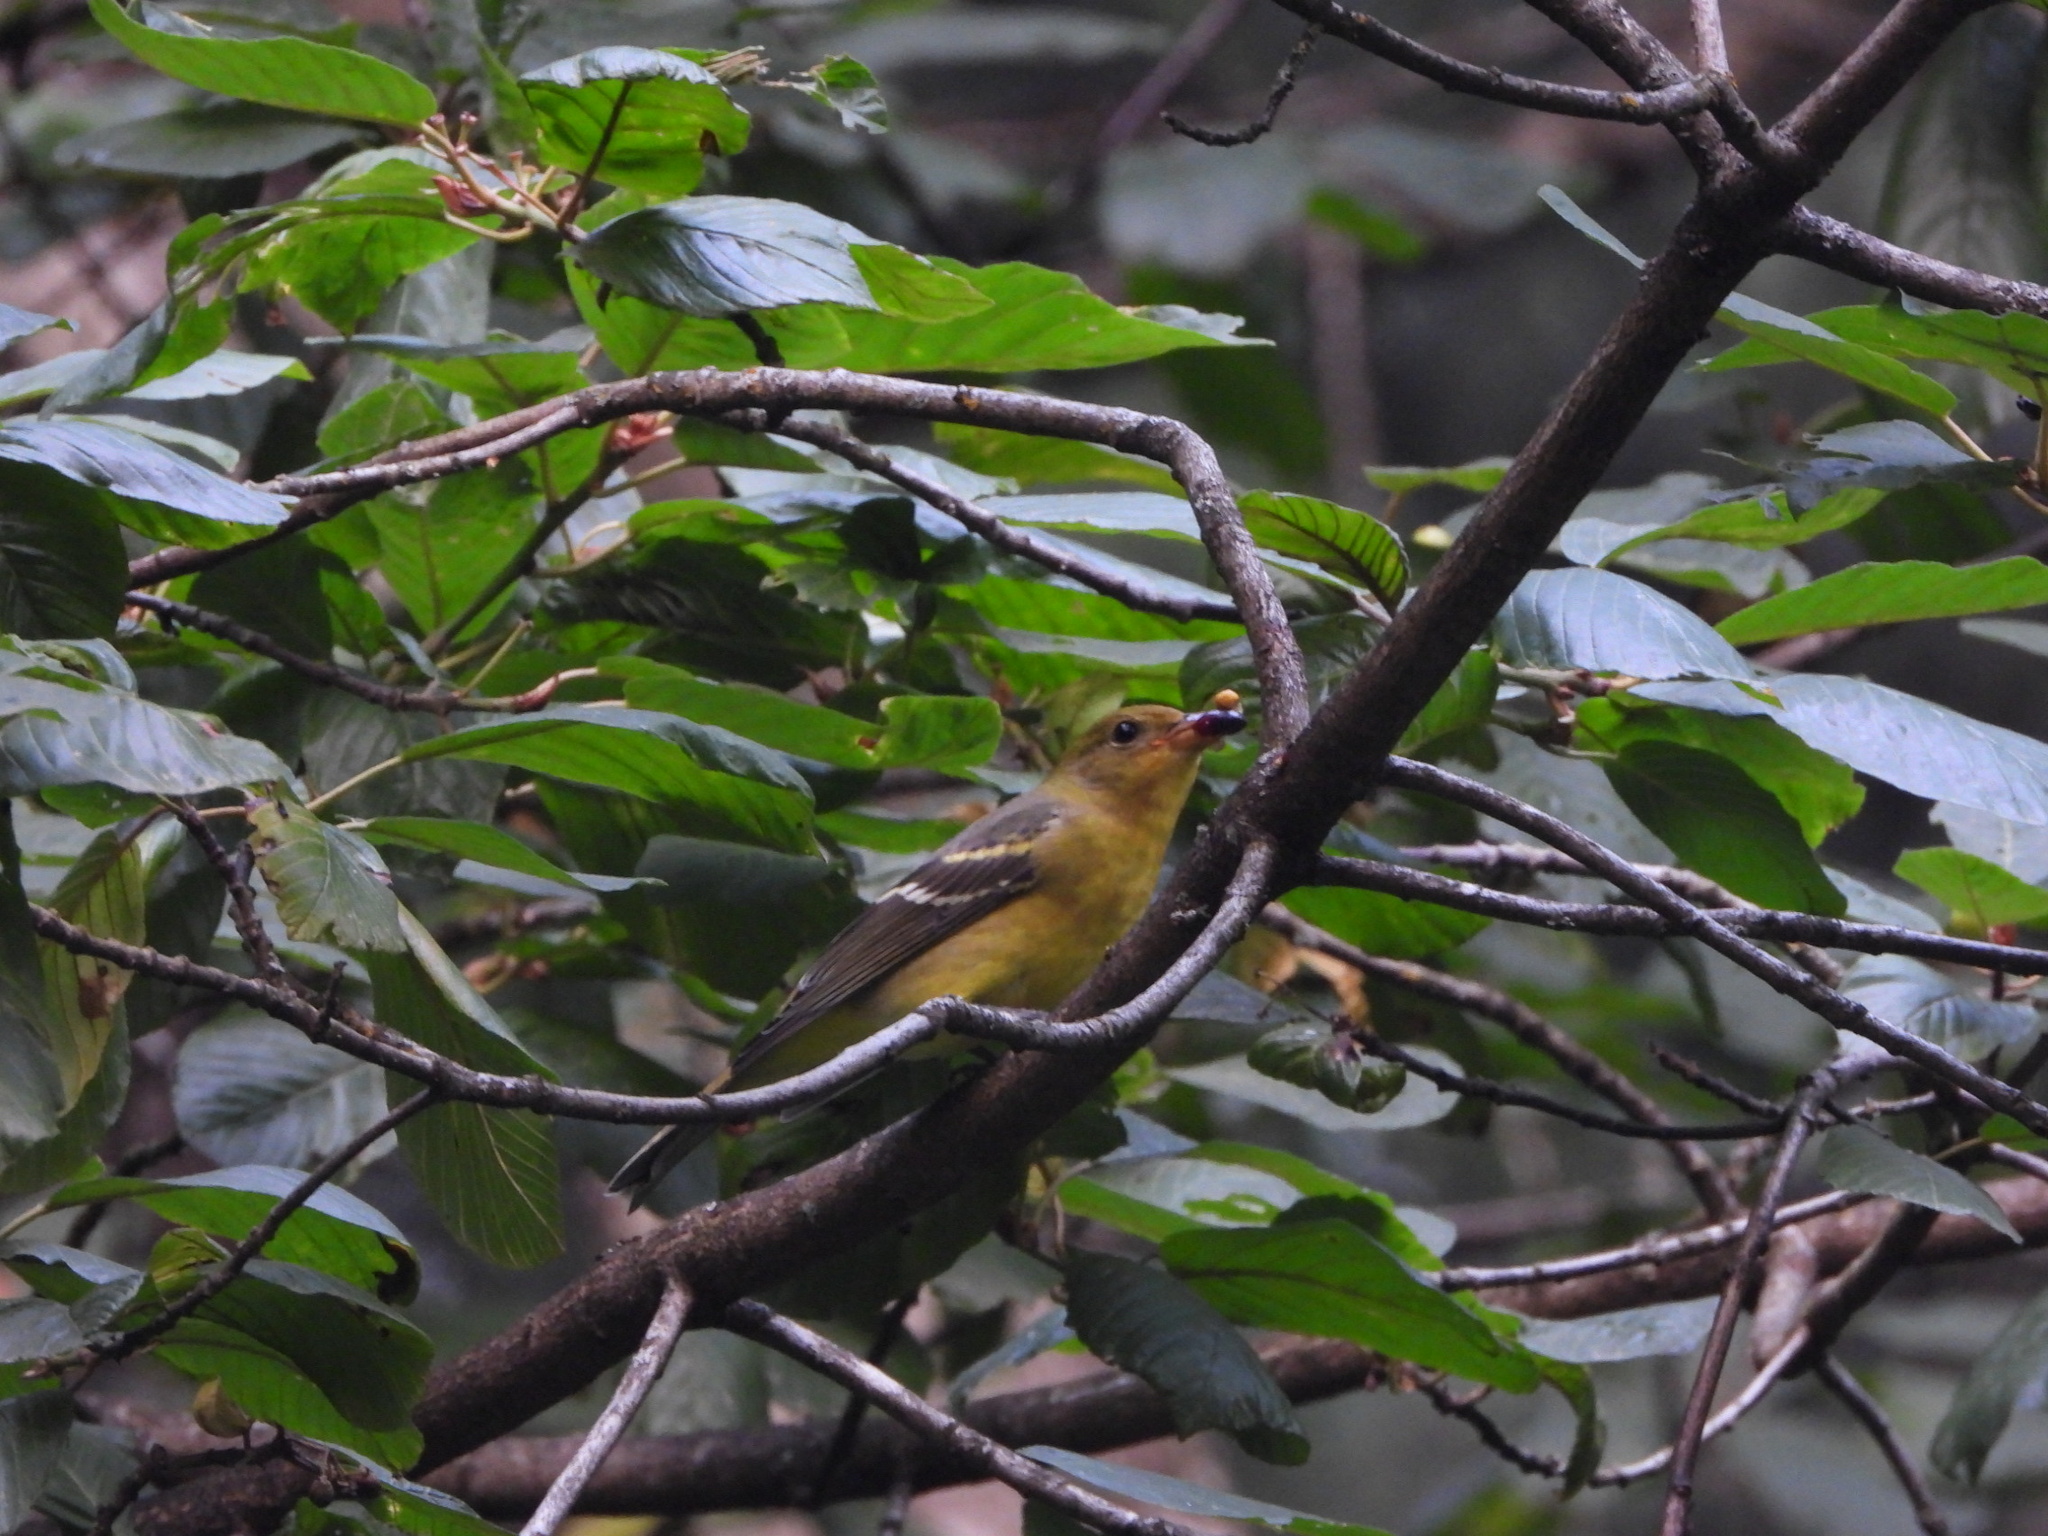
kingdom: Animalia
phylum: Chordata
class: Aves
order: Passeriformes
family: Cardinalidae
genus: Piranga
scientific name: Piranga ludoviciana
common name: Western tanager
